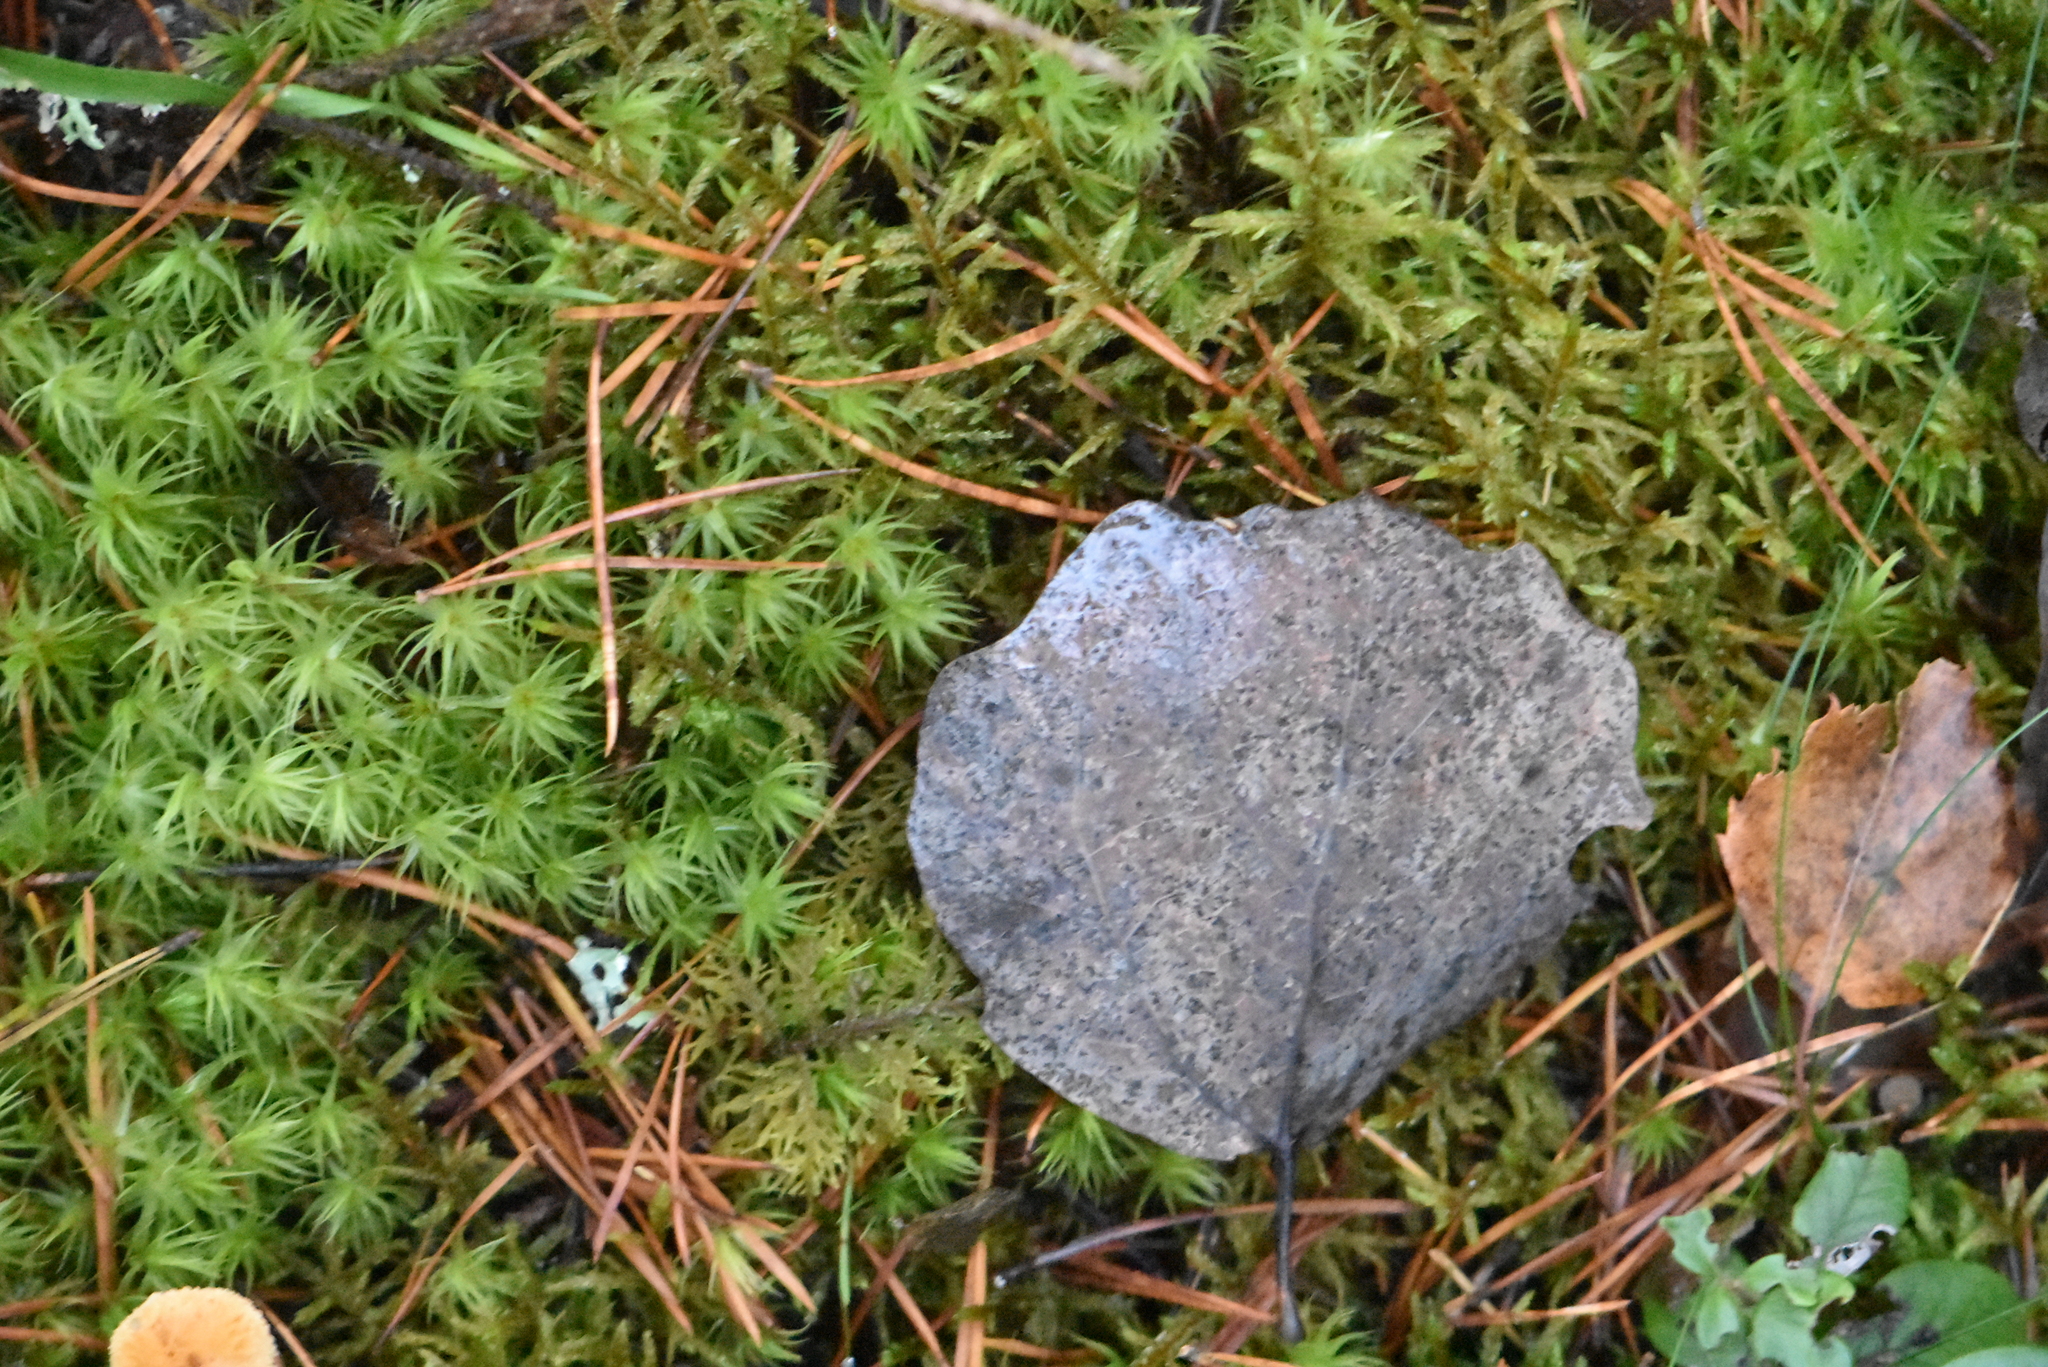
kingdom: Plantae
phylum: Tracheophyta
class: Magnoliopsida
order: Malpighiales
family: Salicaceae
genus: Populus
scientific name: Populus tremula
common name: European aspen
